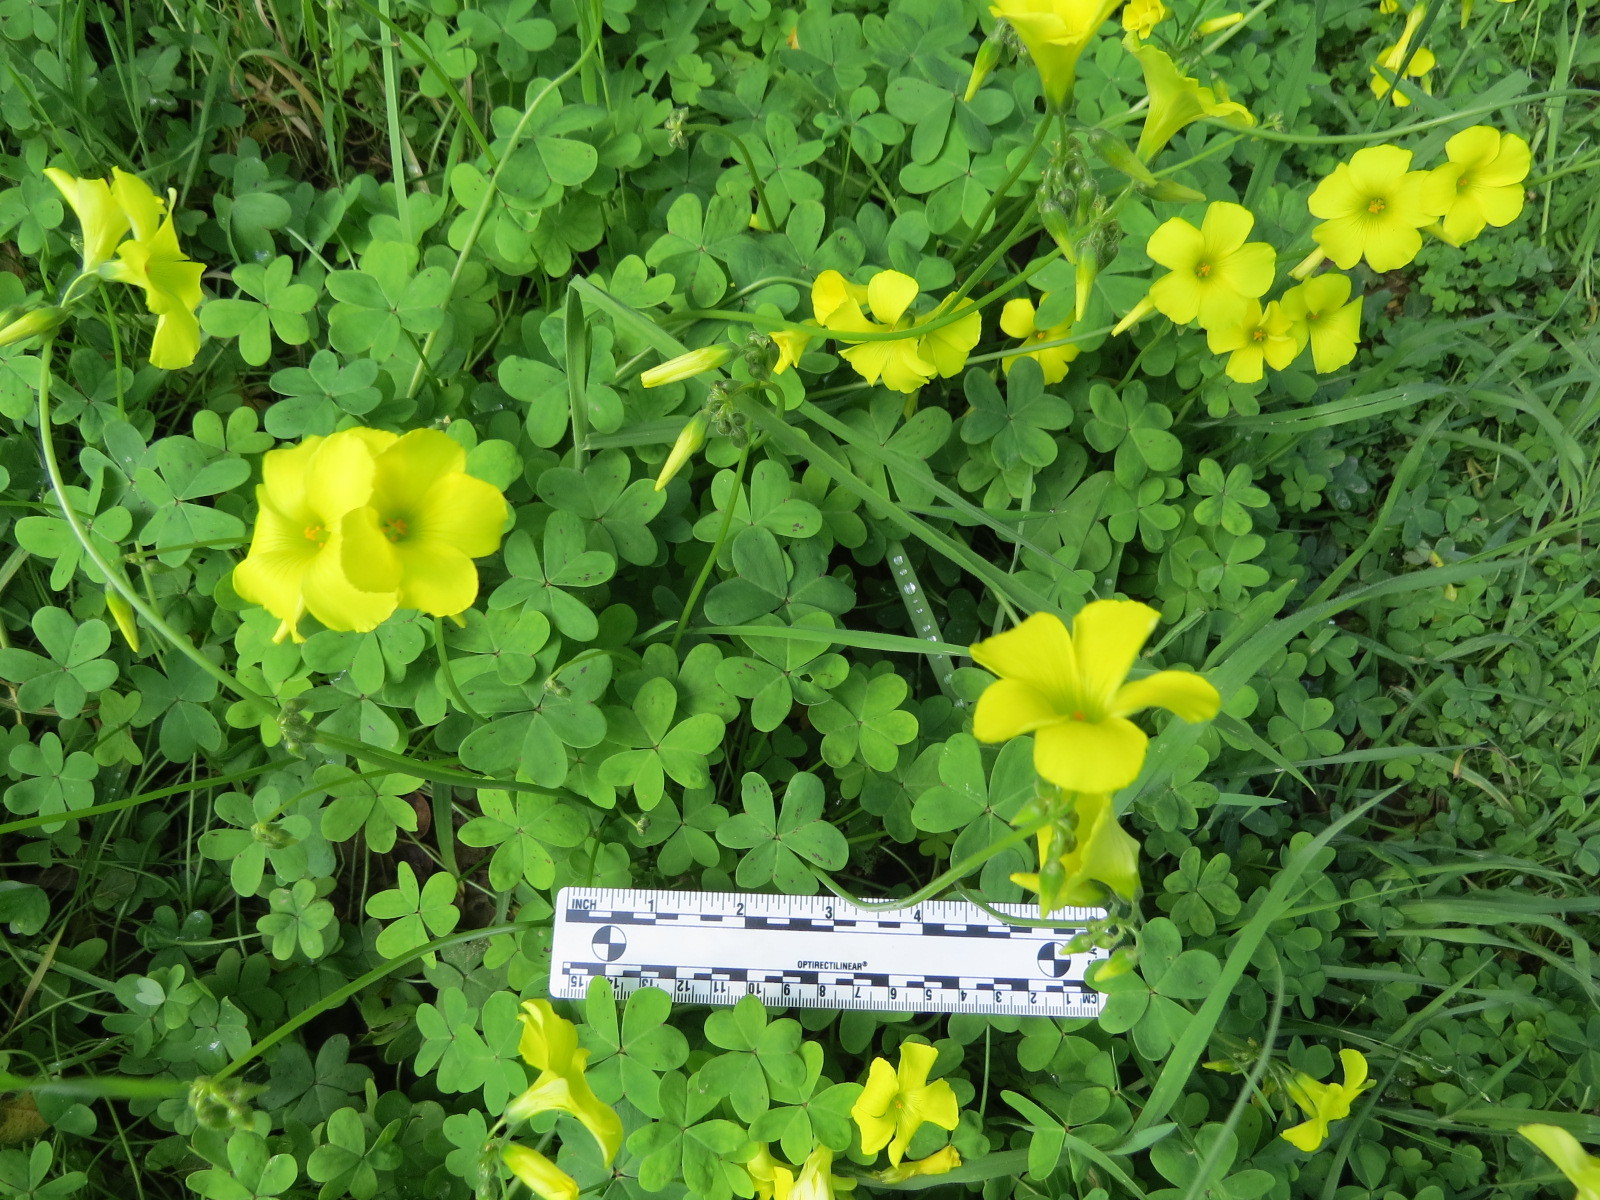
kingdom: Plantae
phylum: Tracheophyta
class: Magnoliopsida
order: Oxalidales
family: Oxalidaceae
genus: Oxalis
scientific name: Oxalis pes-caprae
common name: Bermuda-buttercup
